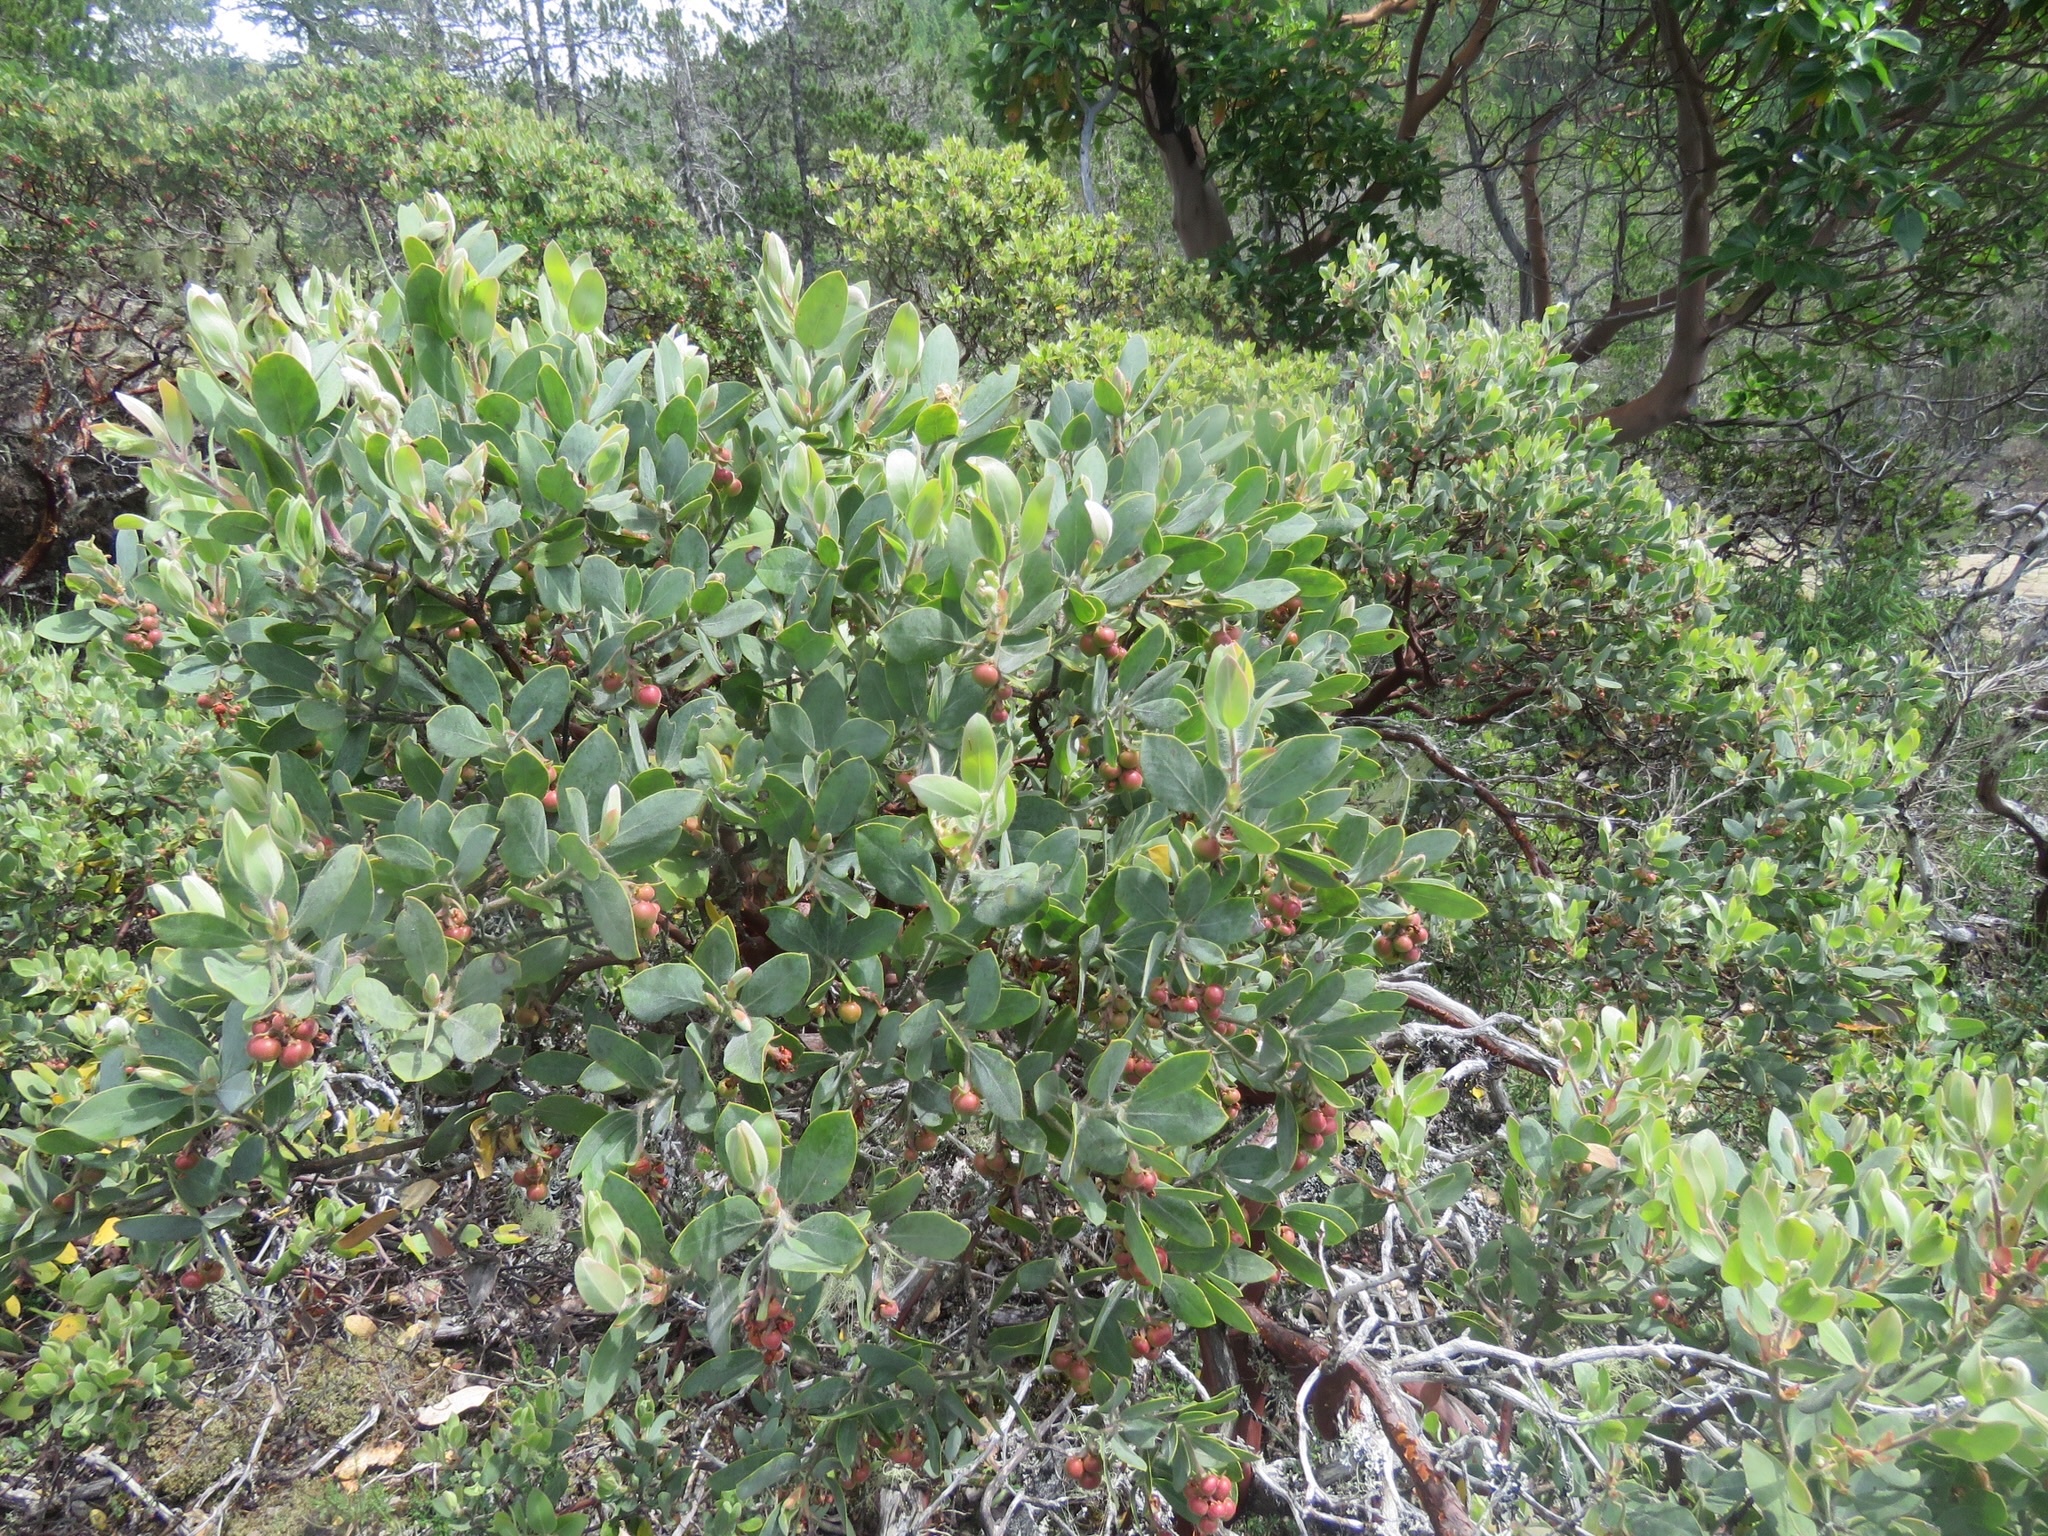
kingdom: Plantae
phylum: Tracheophyta
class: Magnoliopsida
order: Ericales
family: Ericaceae
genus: Arctostaphylos
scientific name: Arctostaphylos columbiana
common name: Bristly bearberry
